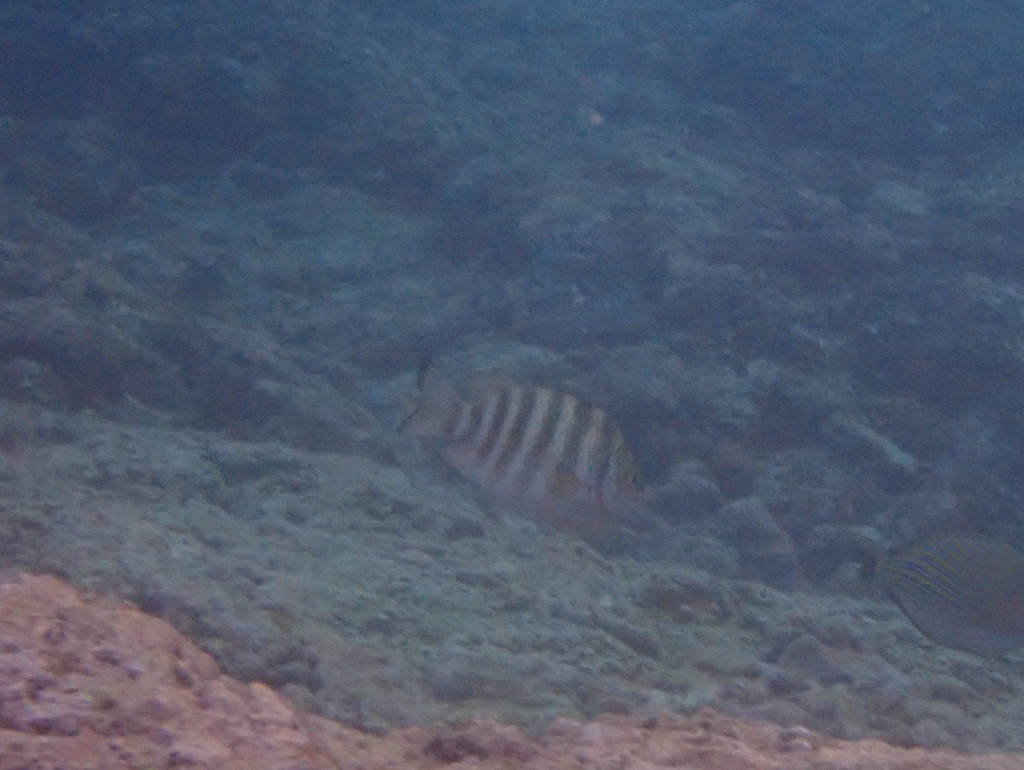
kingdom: Animalia
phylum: Chordata
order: Perciformes
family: Pomacentridae
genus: Abudefduf
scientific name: Abudefduf septemfasciatus
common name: Banded sergeant
